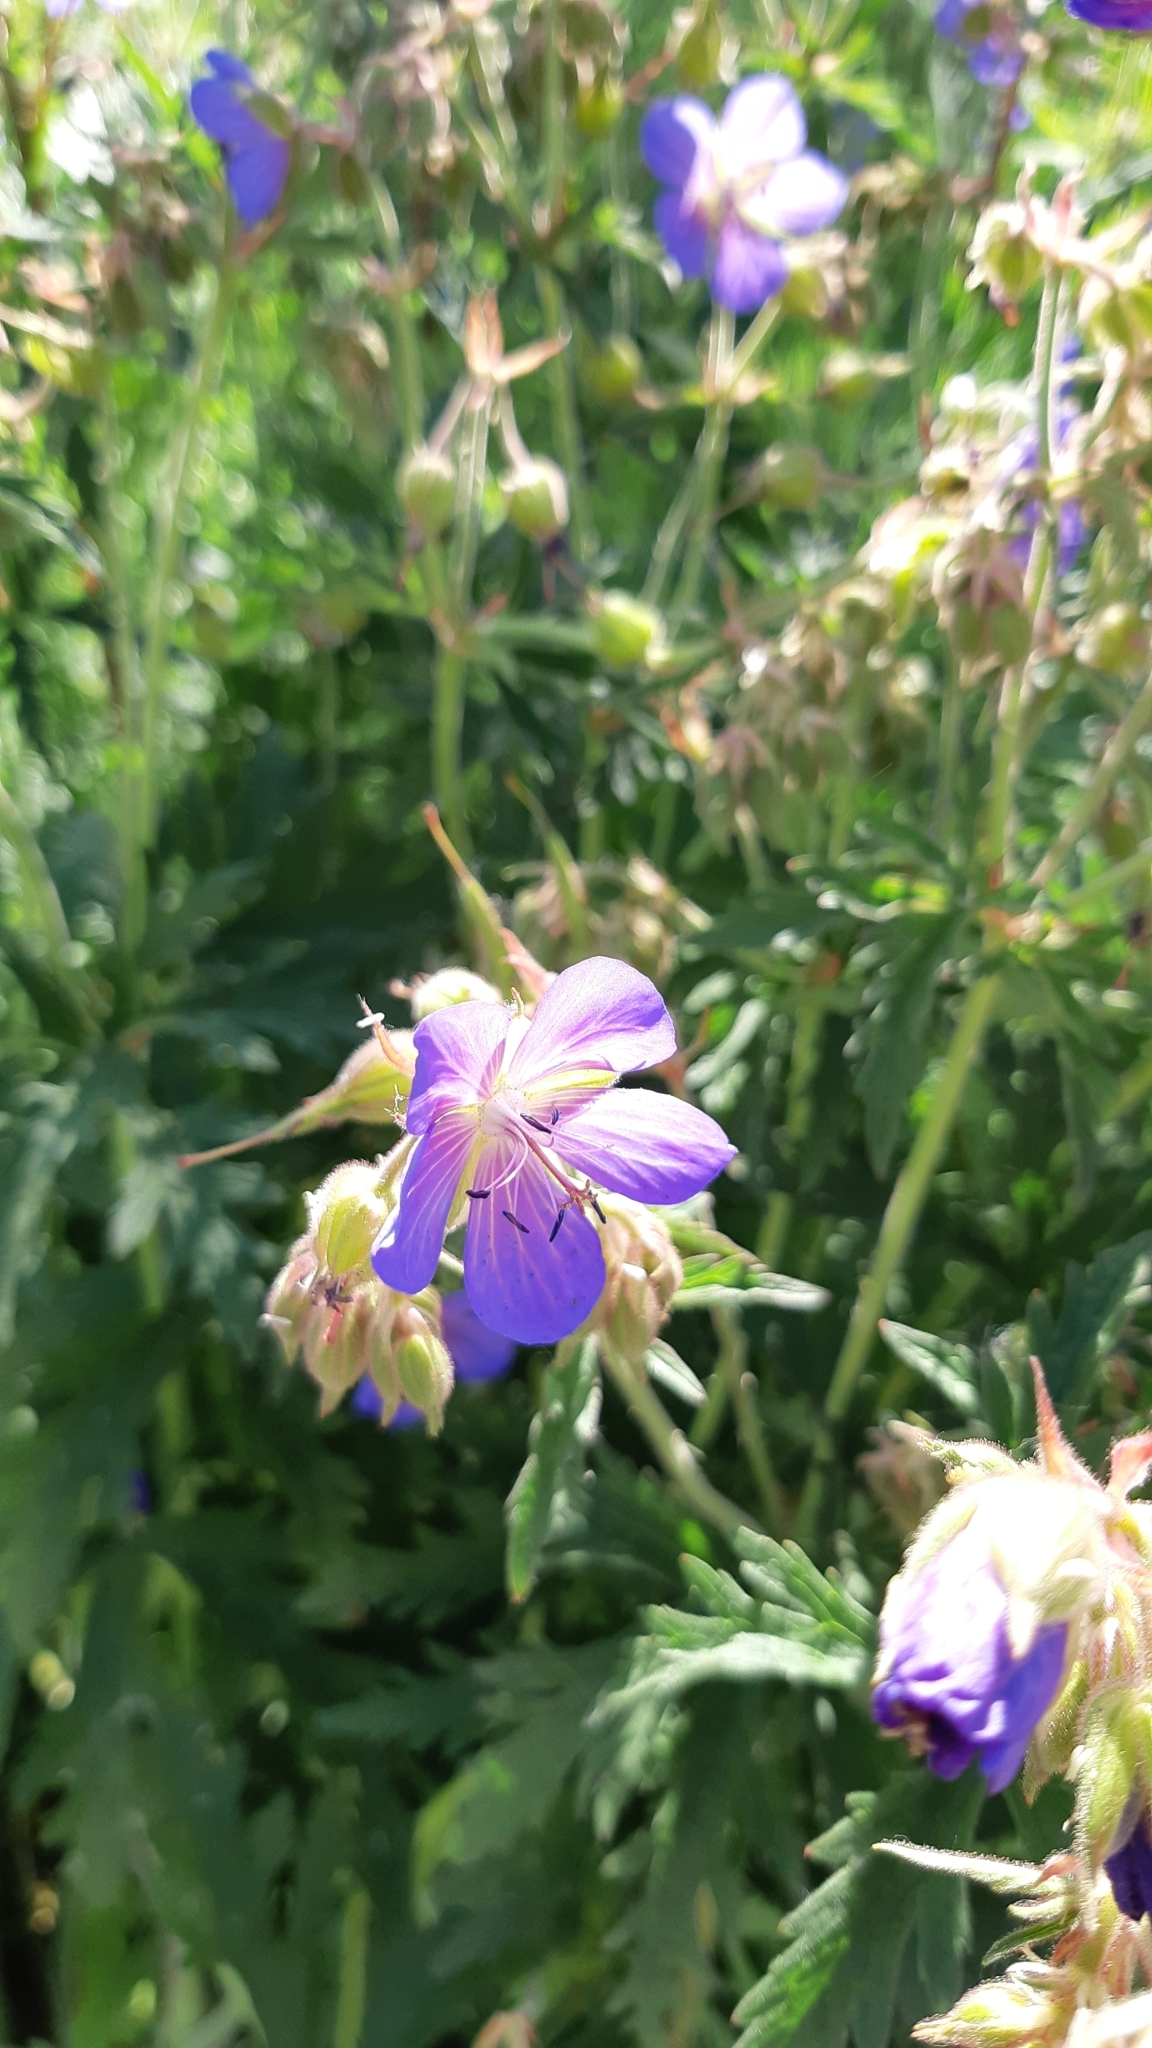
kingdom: Plantae
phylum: Tracheophyta
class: Magnoliopsida
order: Geraniales
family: Geraniaceae
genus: Geranium
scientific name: Geranium pratense
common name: Meadow crane's-bill
